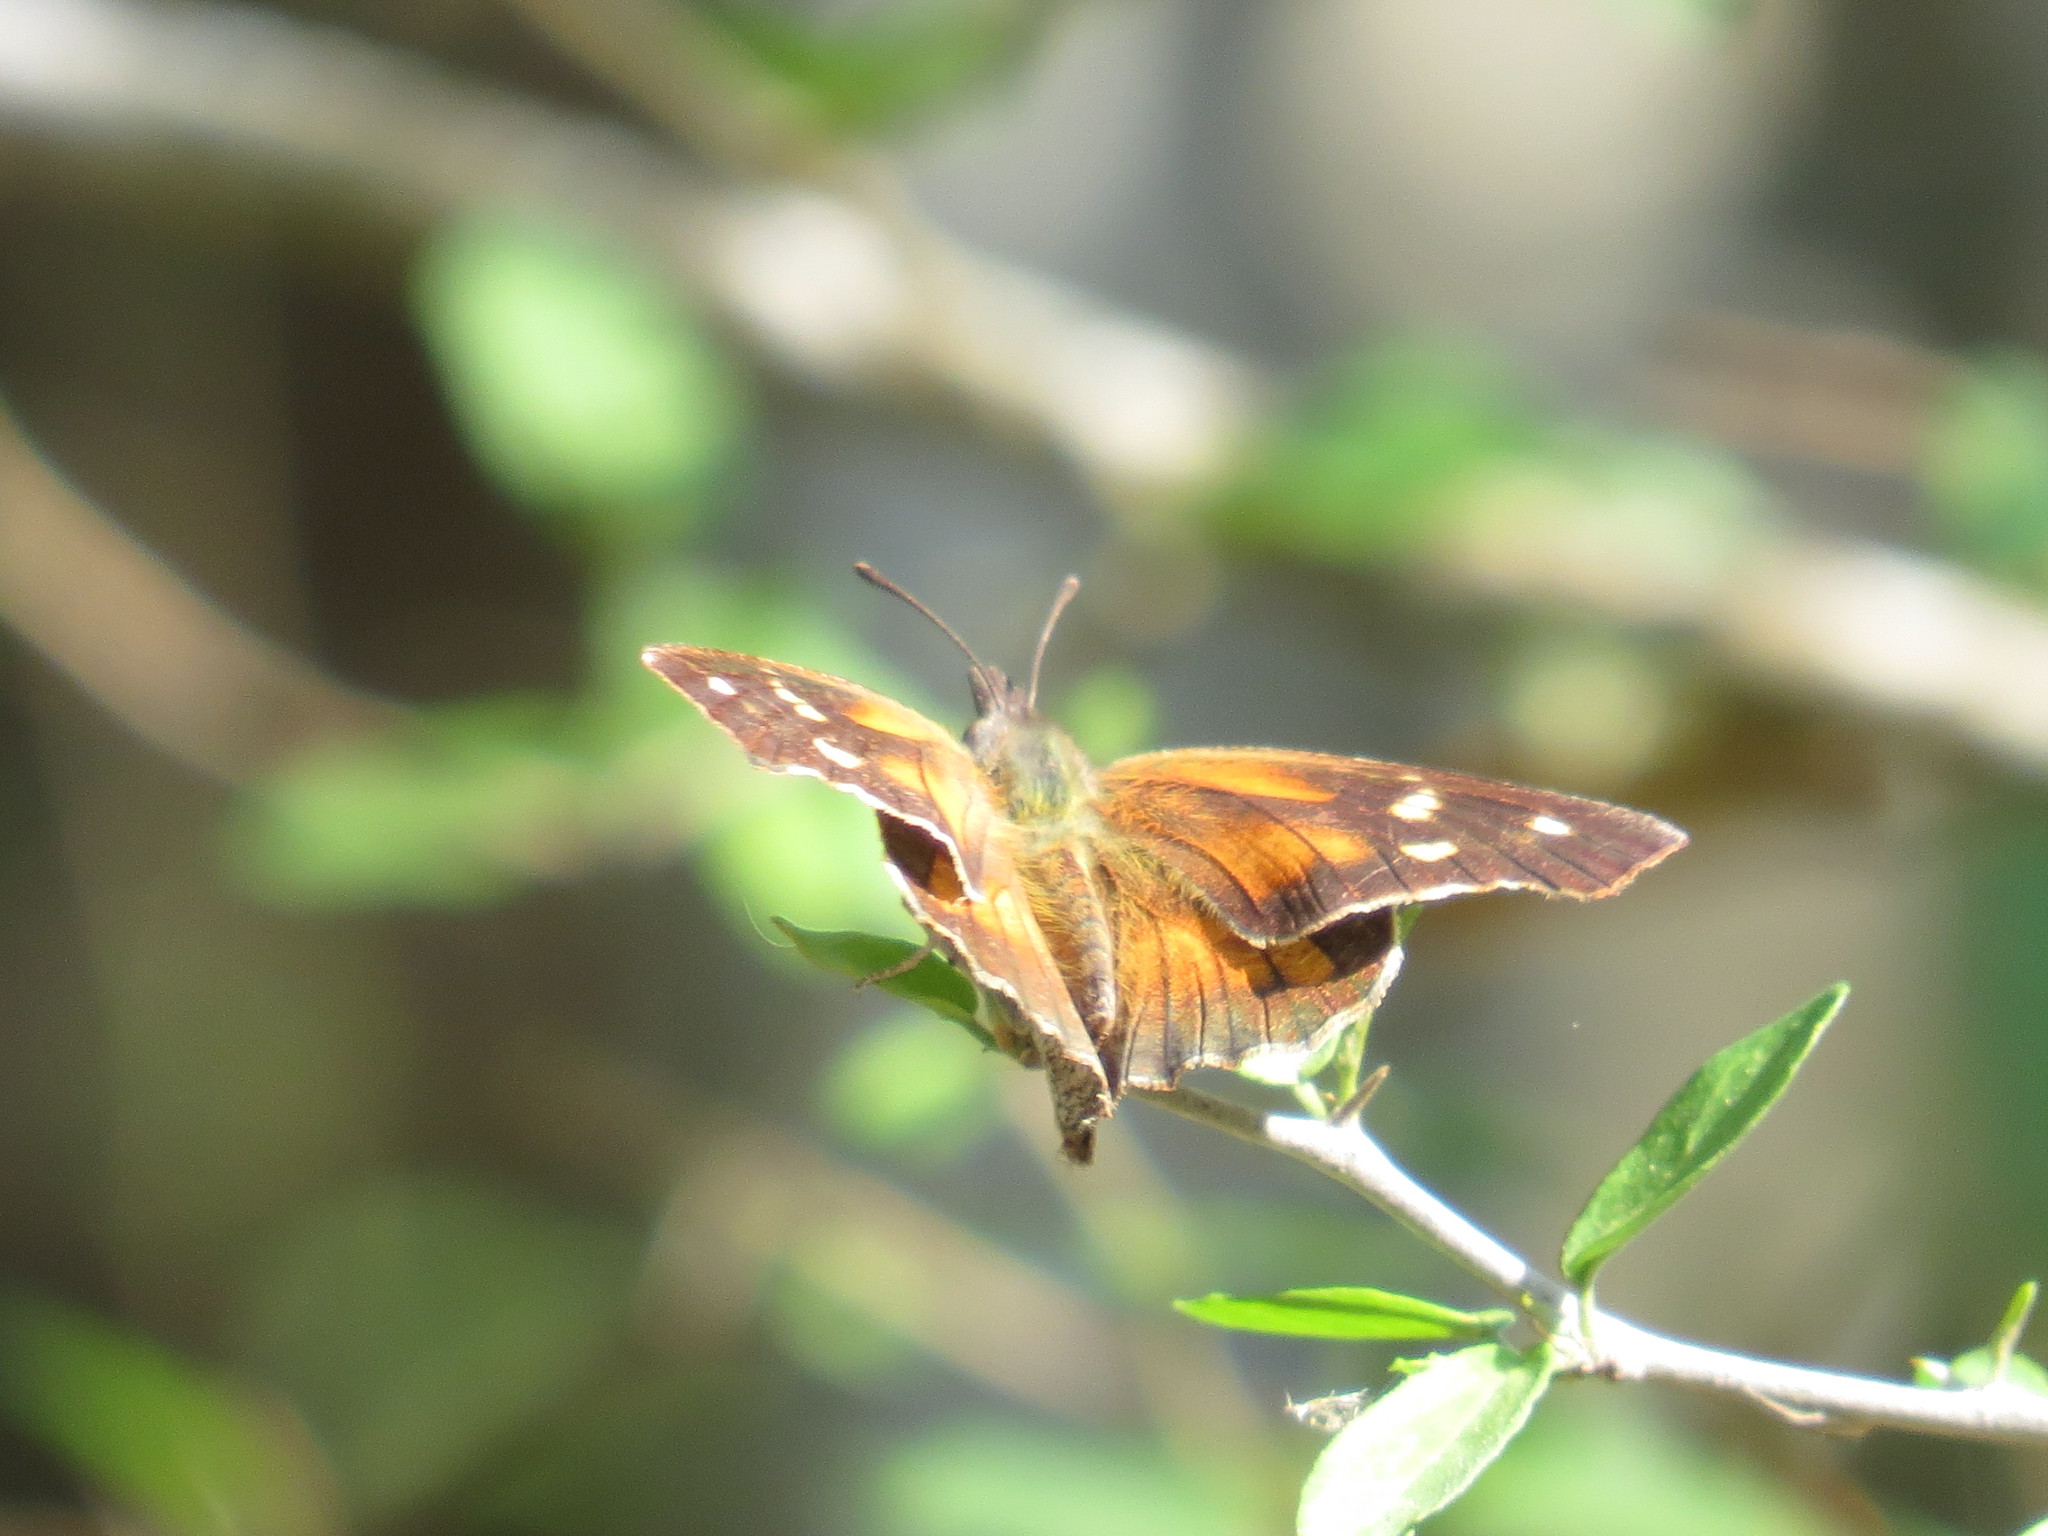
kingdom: Animalia
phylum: Arthropoda
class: Insecta
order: Lepidoptera
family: Nymphalidae
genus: Libytheana
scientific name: Libytheana carinenta
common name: American snout
